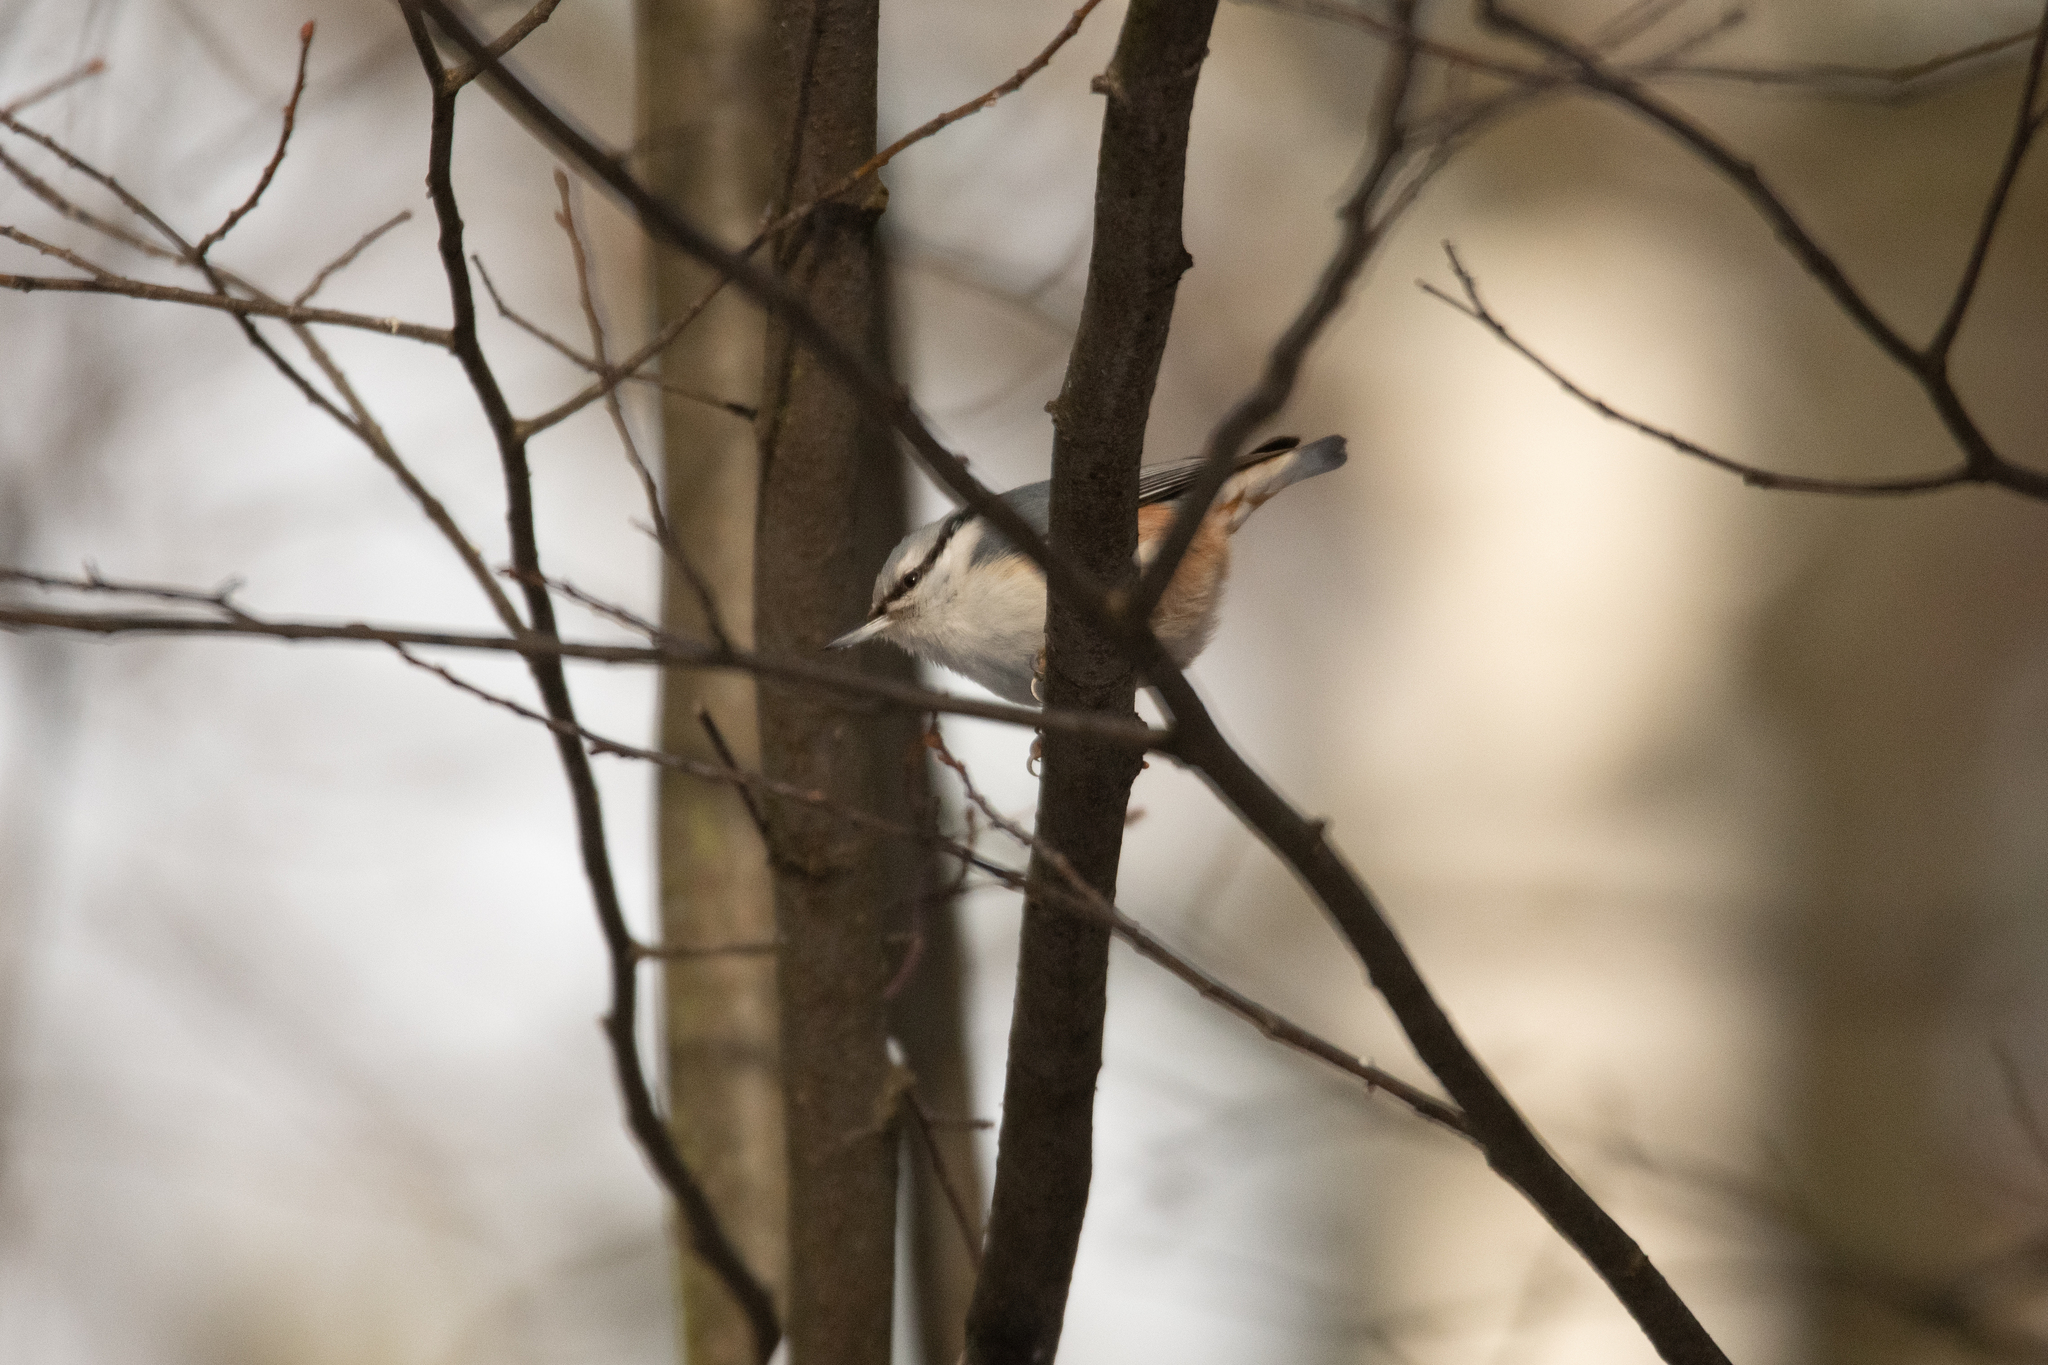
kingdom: Animalia
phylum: Chordata
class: Aves
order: Passeriformes
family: Sittidae
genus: Sitta
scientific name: Sitta europaea
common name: Eurasian nuthatch
